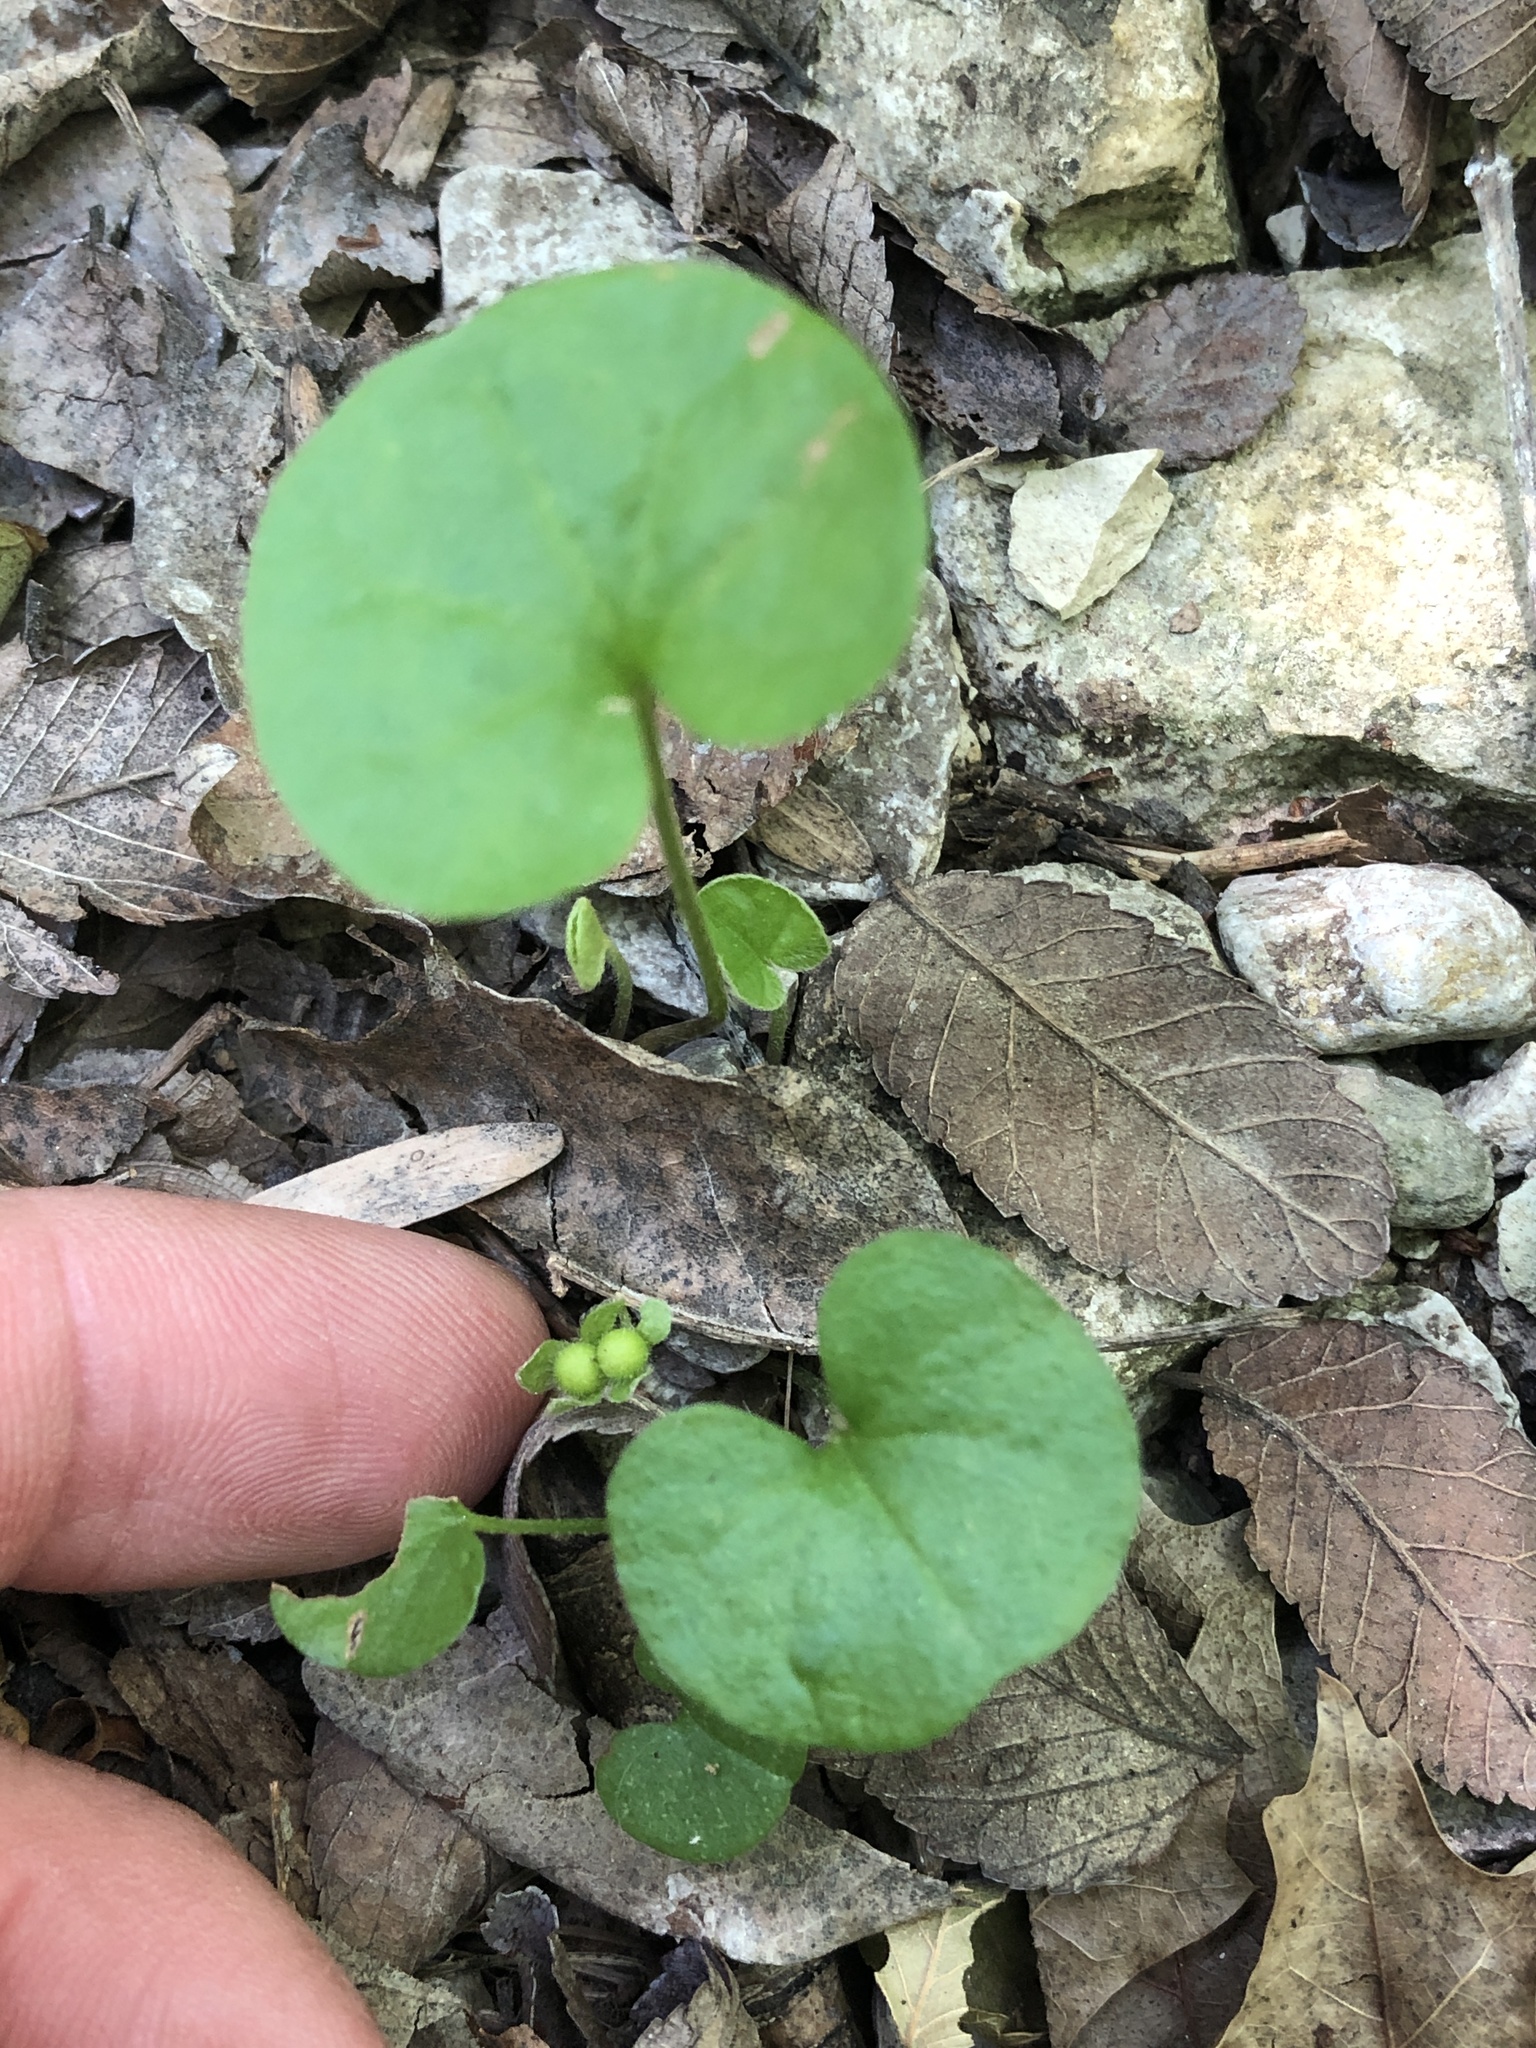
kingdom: Plantae
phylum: Tracheophyta
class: Magnoliopsida
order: Solanales
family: Convolvulaceae
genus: Dichondra
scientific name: Dichondra carolinensis
